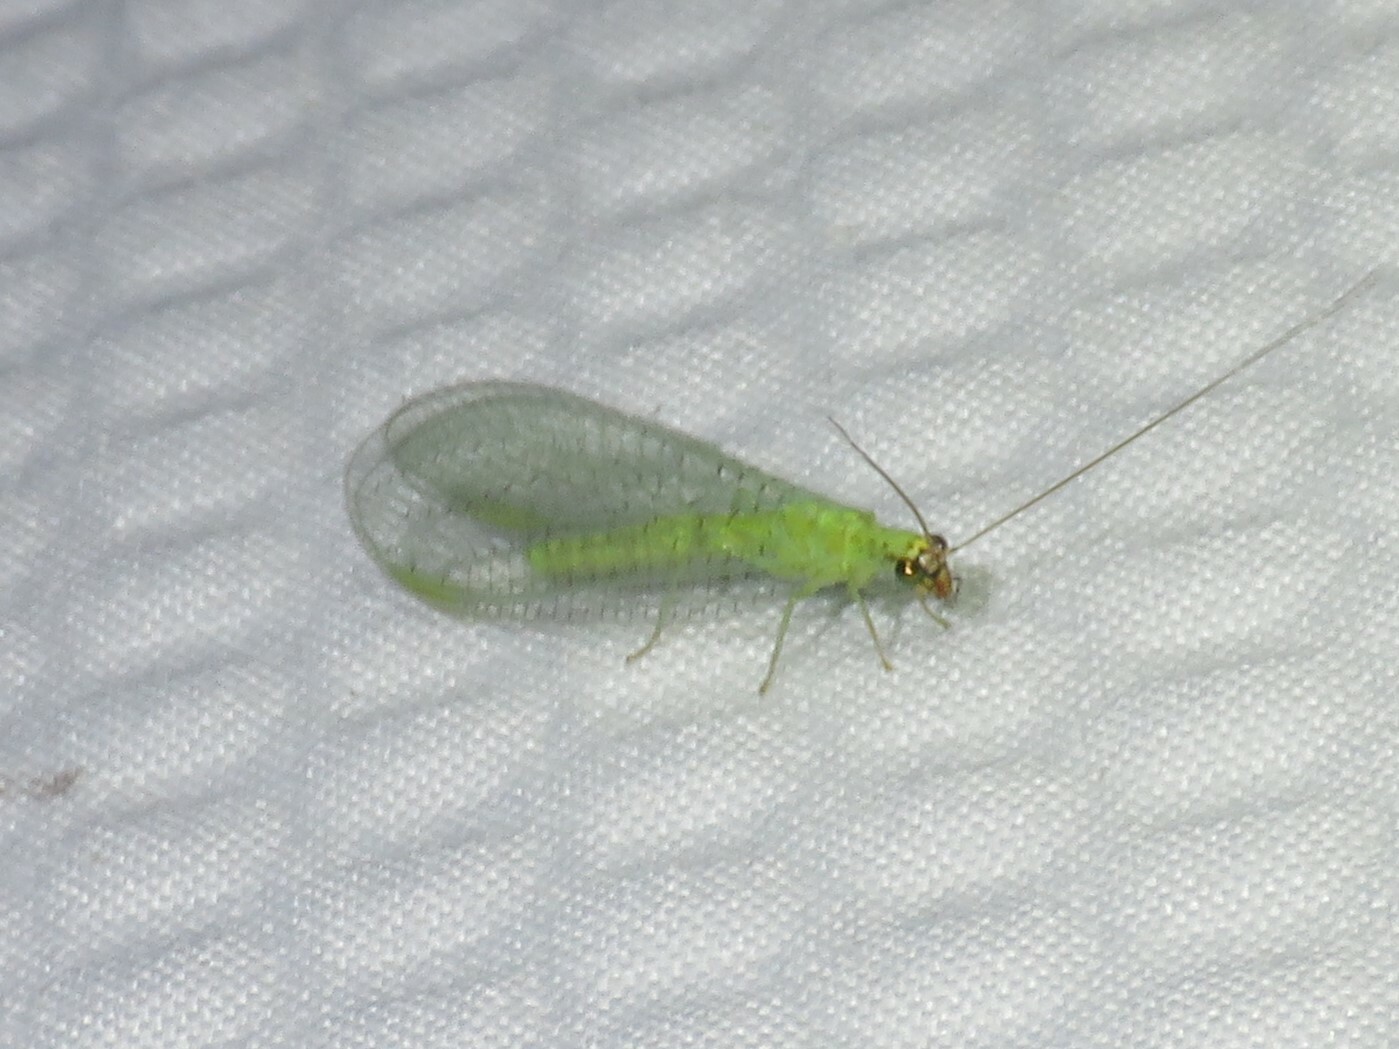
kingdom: Animalia
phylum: Arthropoda
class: Insecta
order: Neuroptera
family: Chrysopidae
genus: Chrysopa
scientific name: Chrysopa oculata
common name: Golden-eyed lacewing
